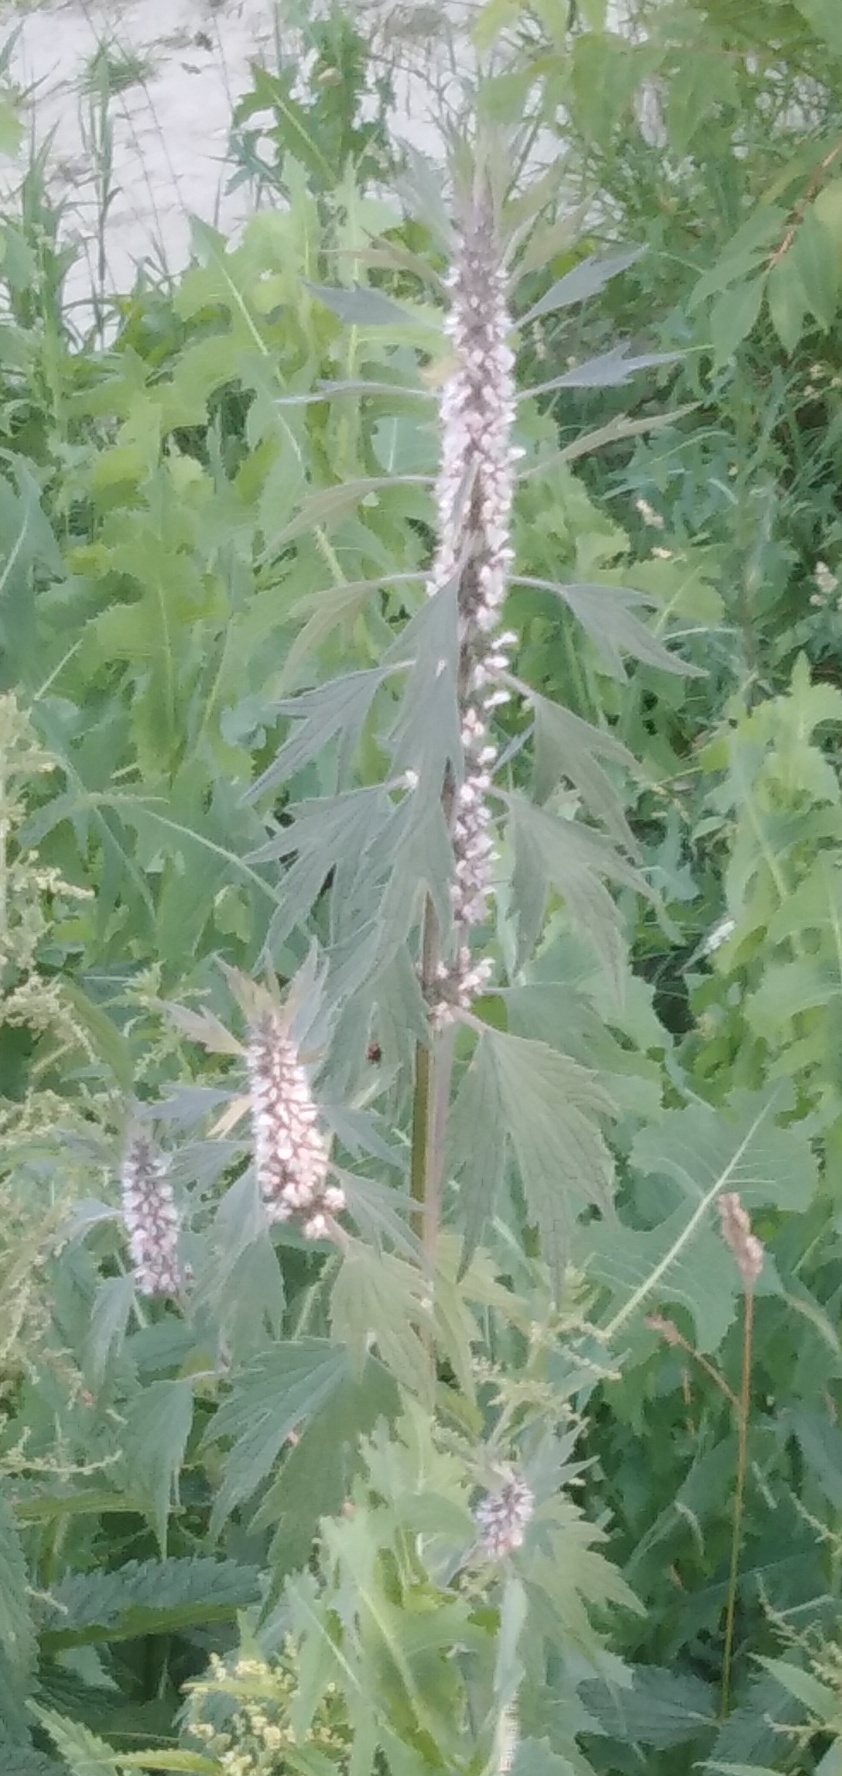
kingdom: Plantae
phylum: Tracheophyta
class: Magnoliopsida
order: Lamiales
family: Lamiaceae
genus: Leonurus
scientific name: Leonurus quinquelobatus
